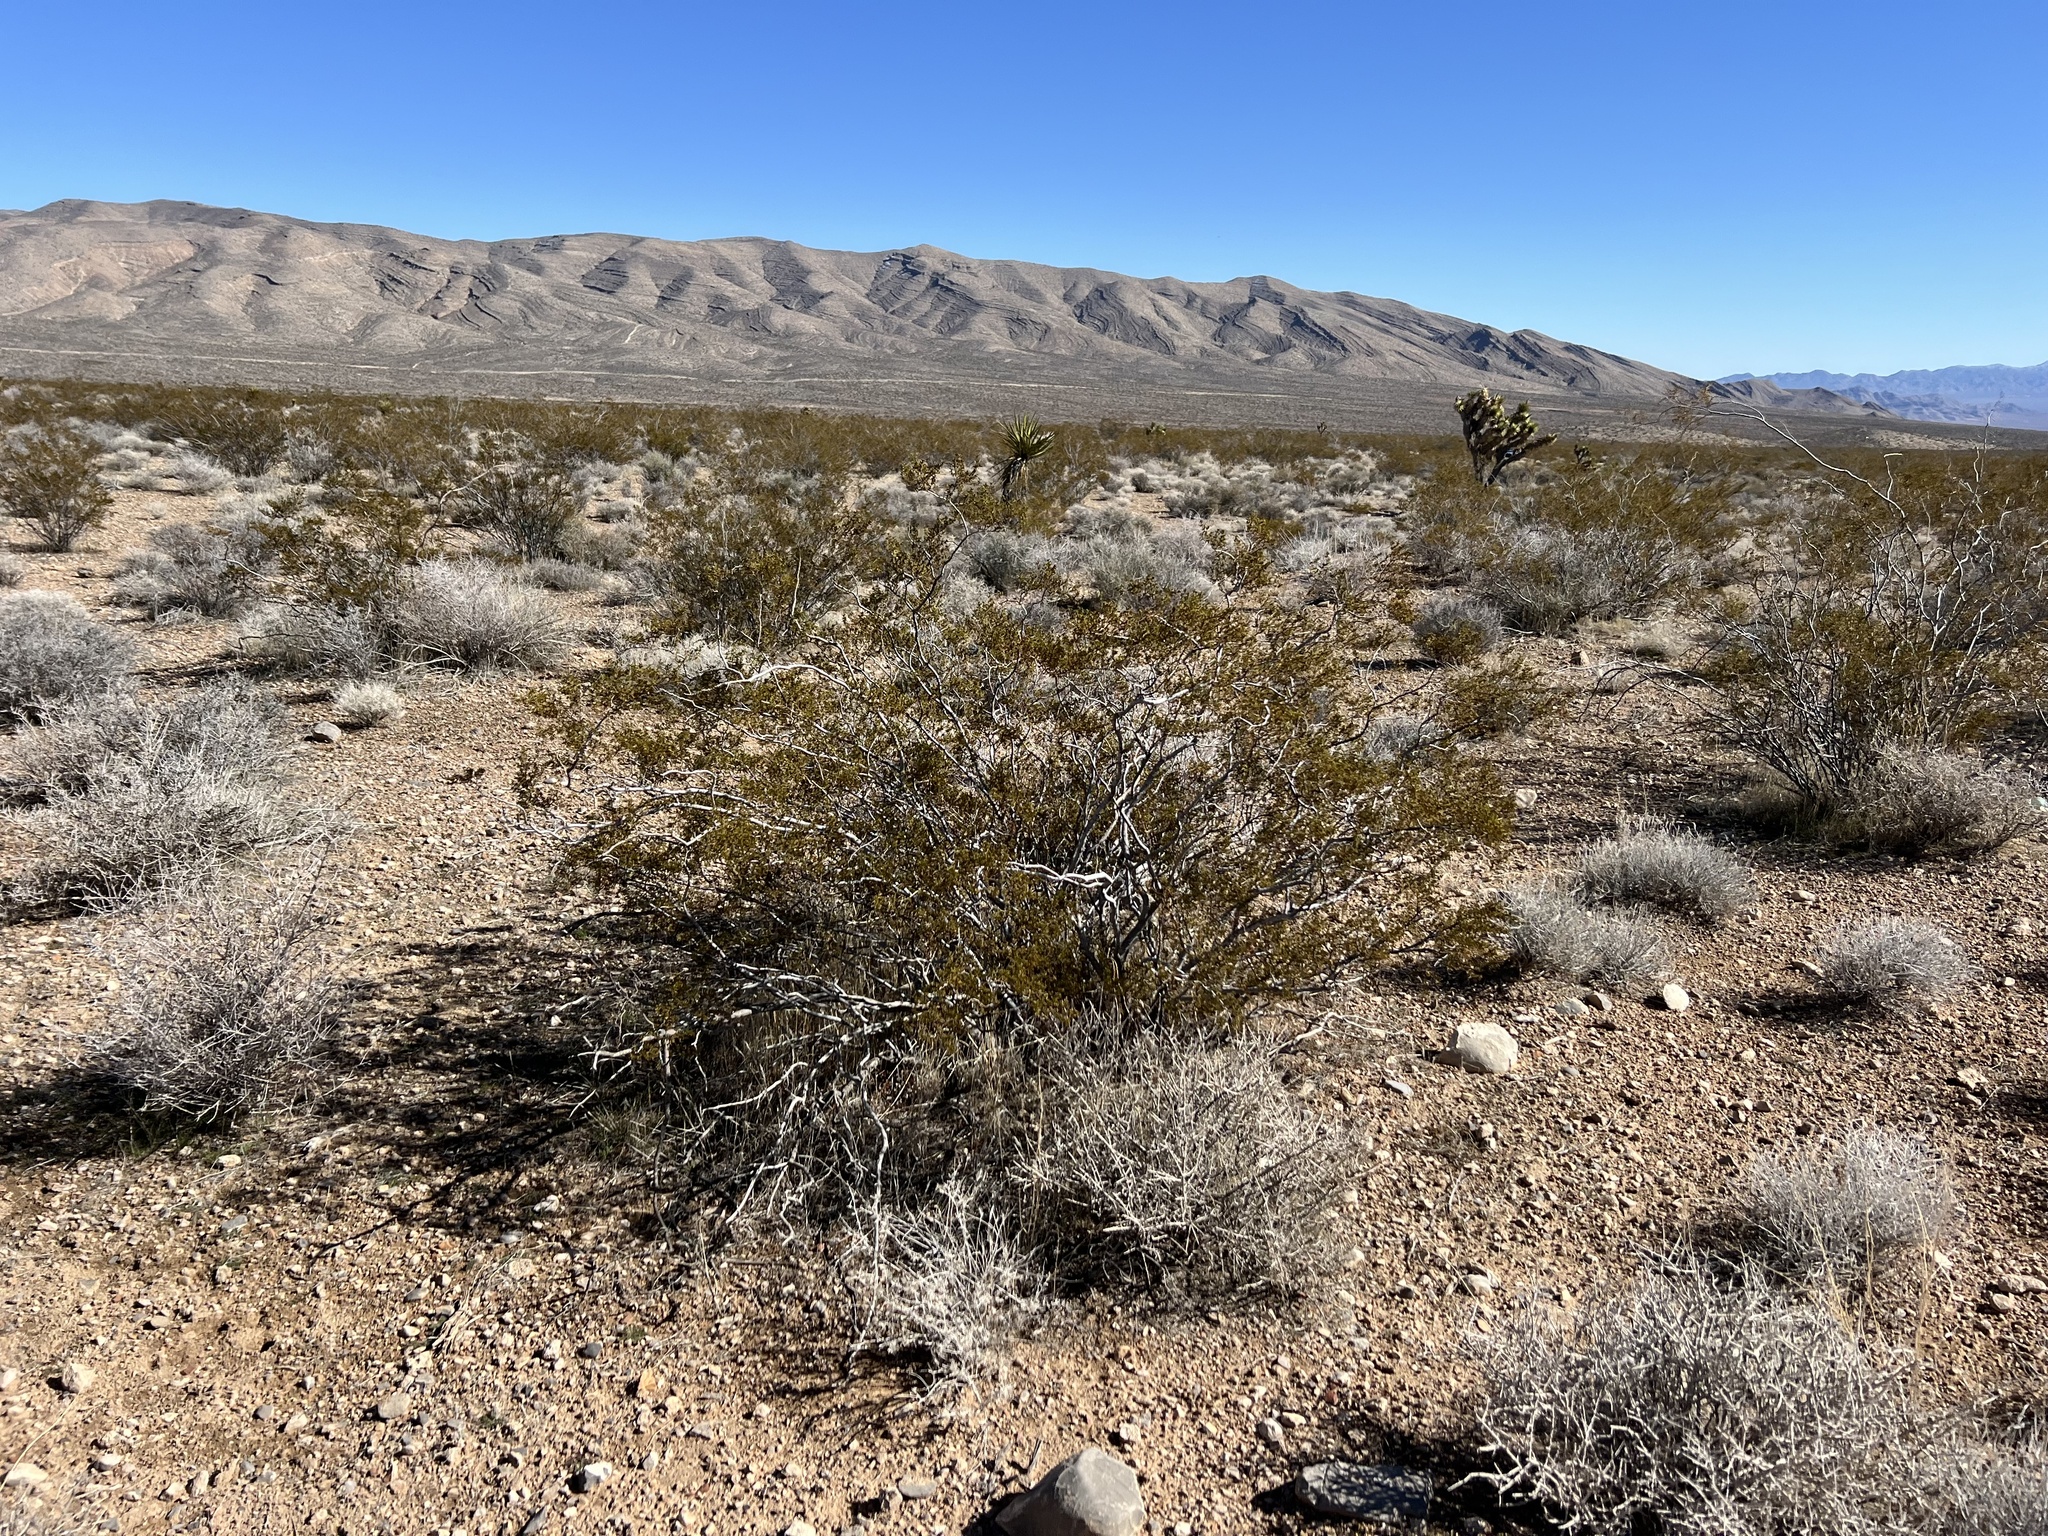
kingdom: Plantae
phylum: Tracheophyta
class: Magnoliopsida
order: Zygophyllales
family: Zygophyllaceae
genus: Larrea
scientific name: Larrea tridentata
